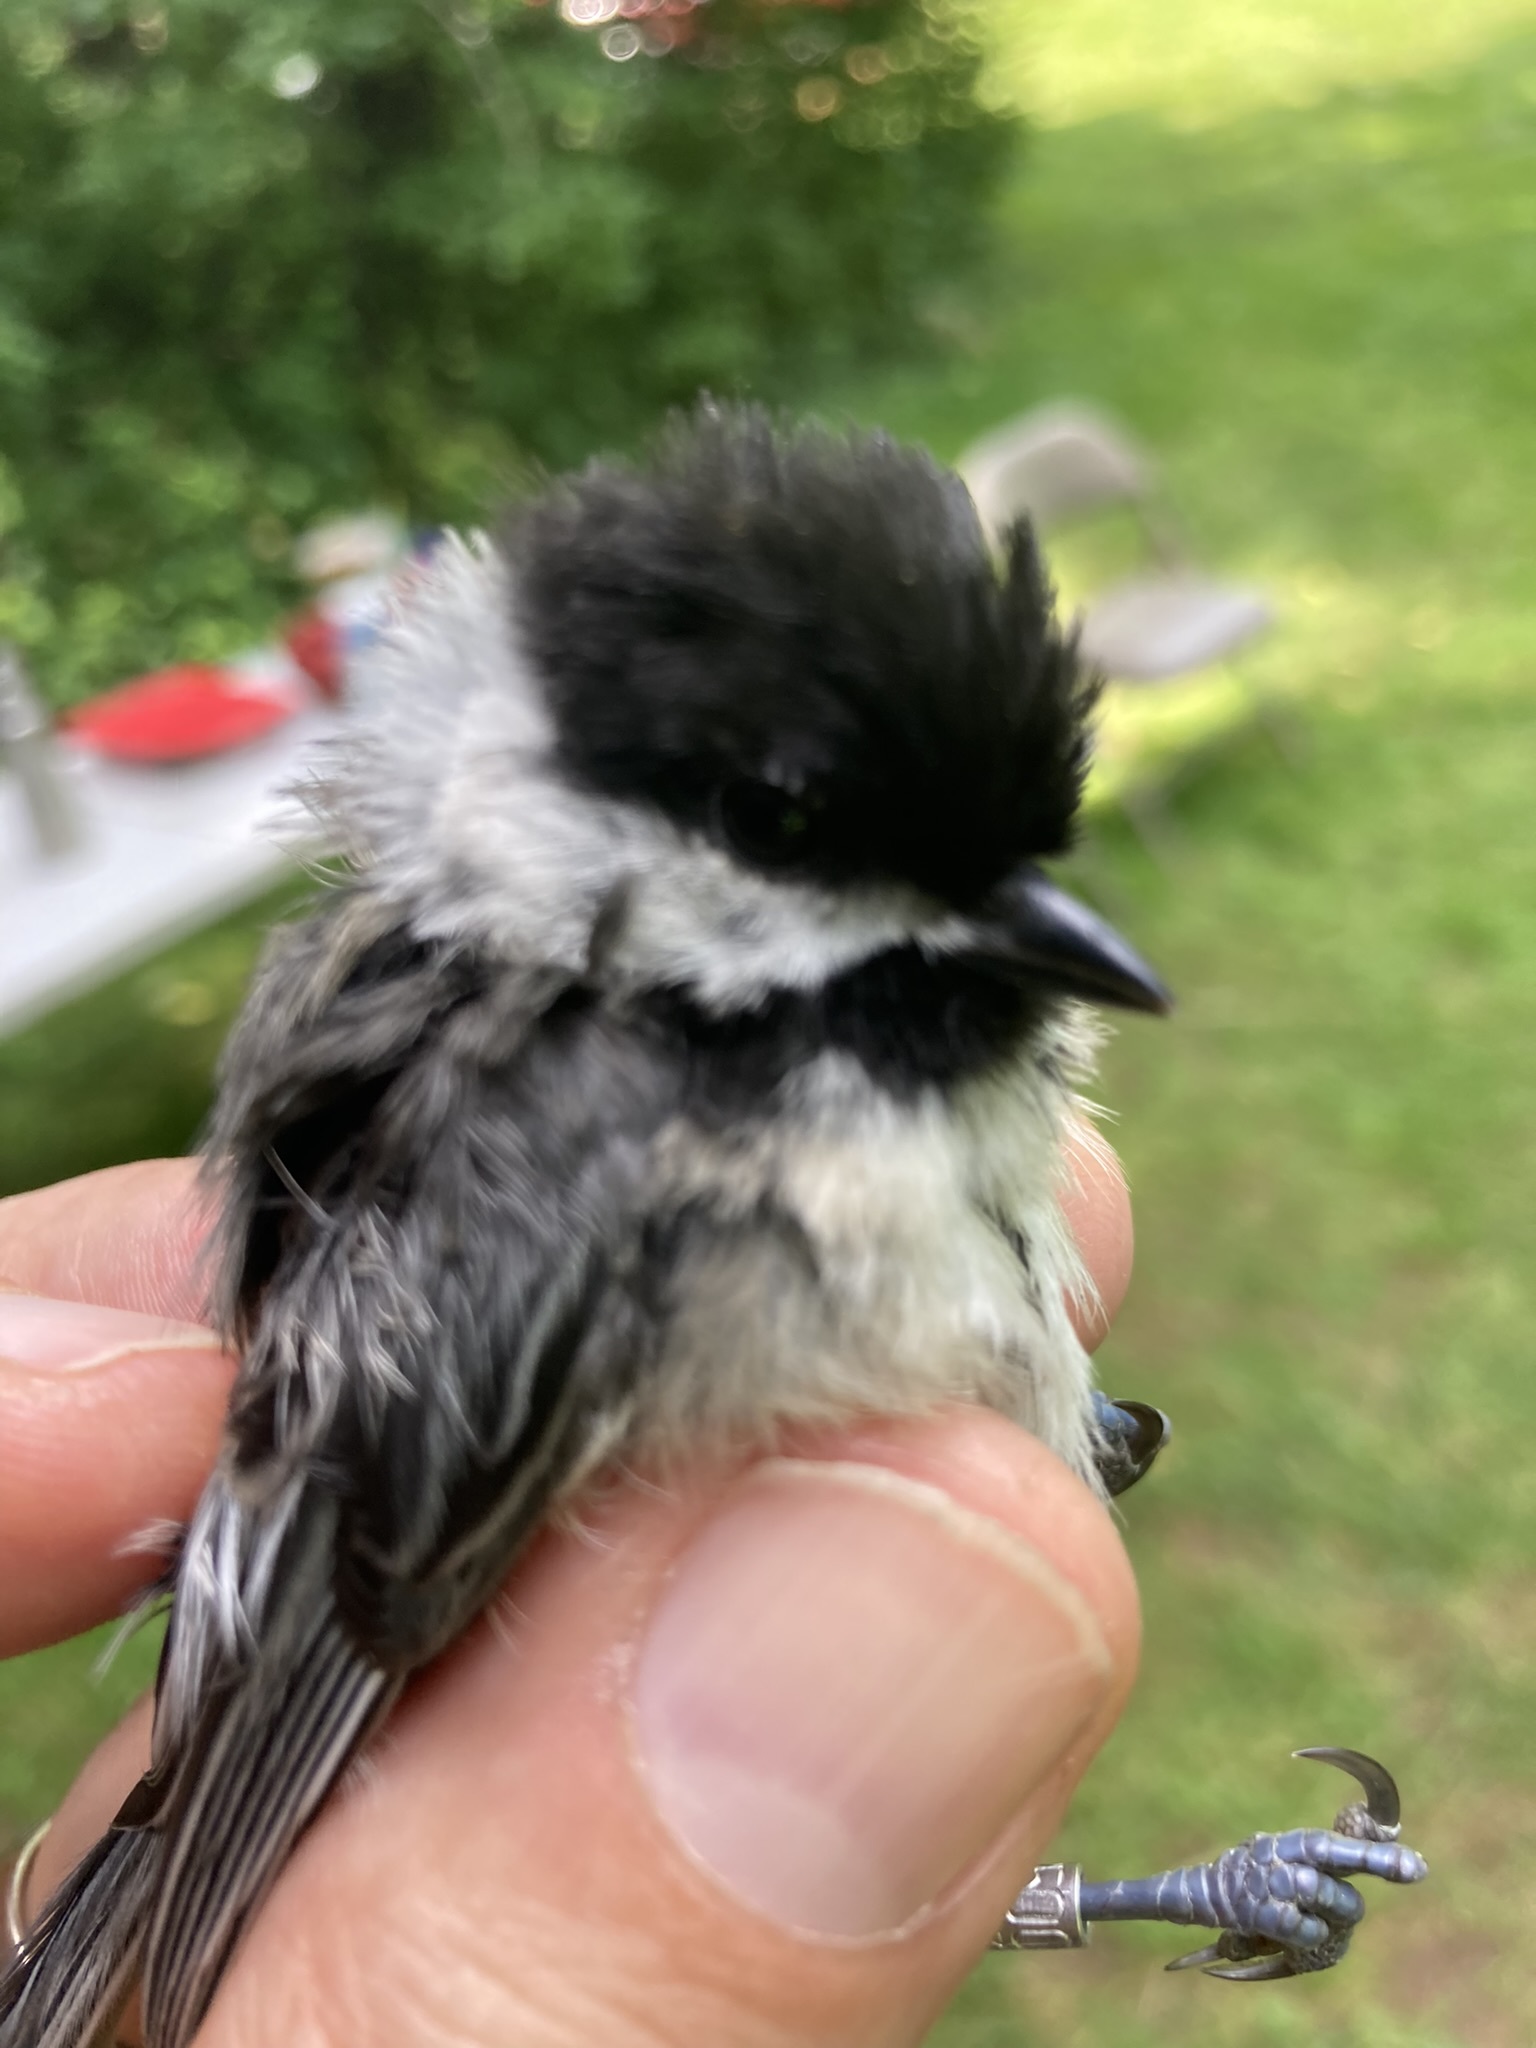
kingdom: Animalia
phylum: Chordata
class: Aves
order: Passeriformes
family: Paridae
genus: Poecile
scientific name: Poecile atricapillus
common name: Black-capped chickadee
